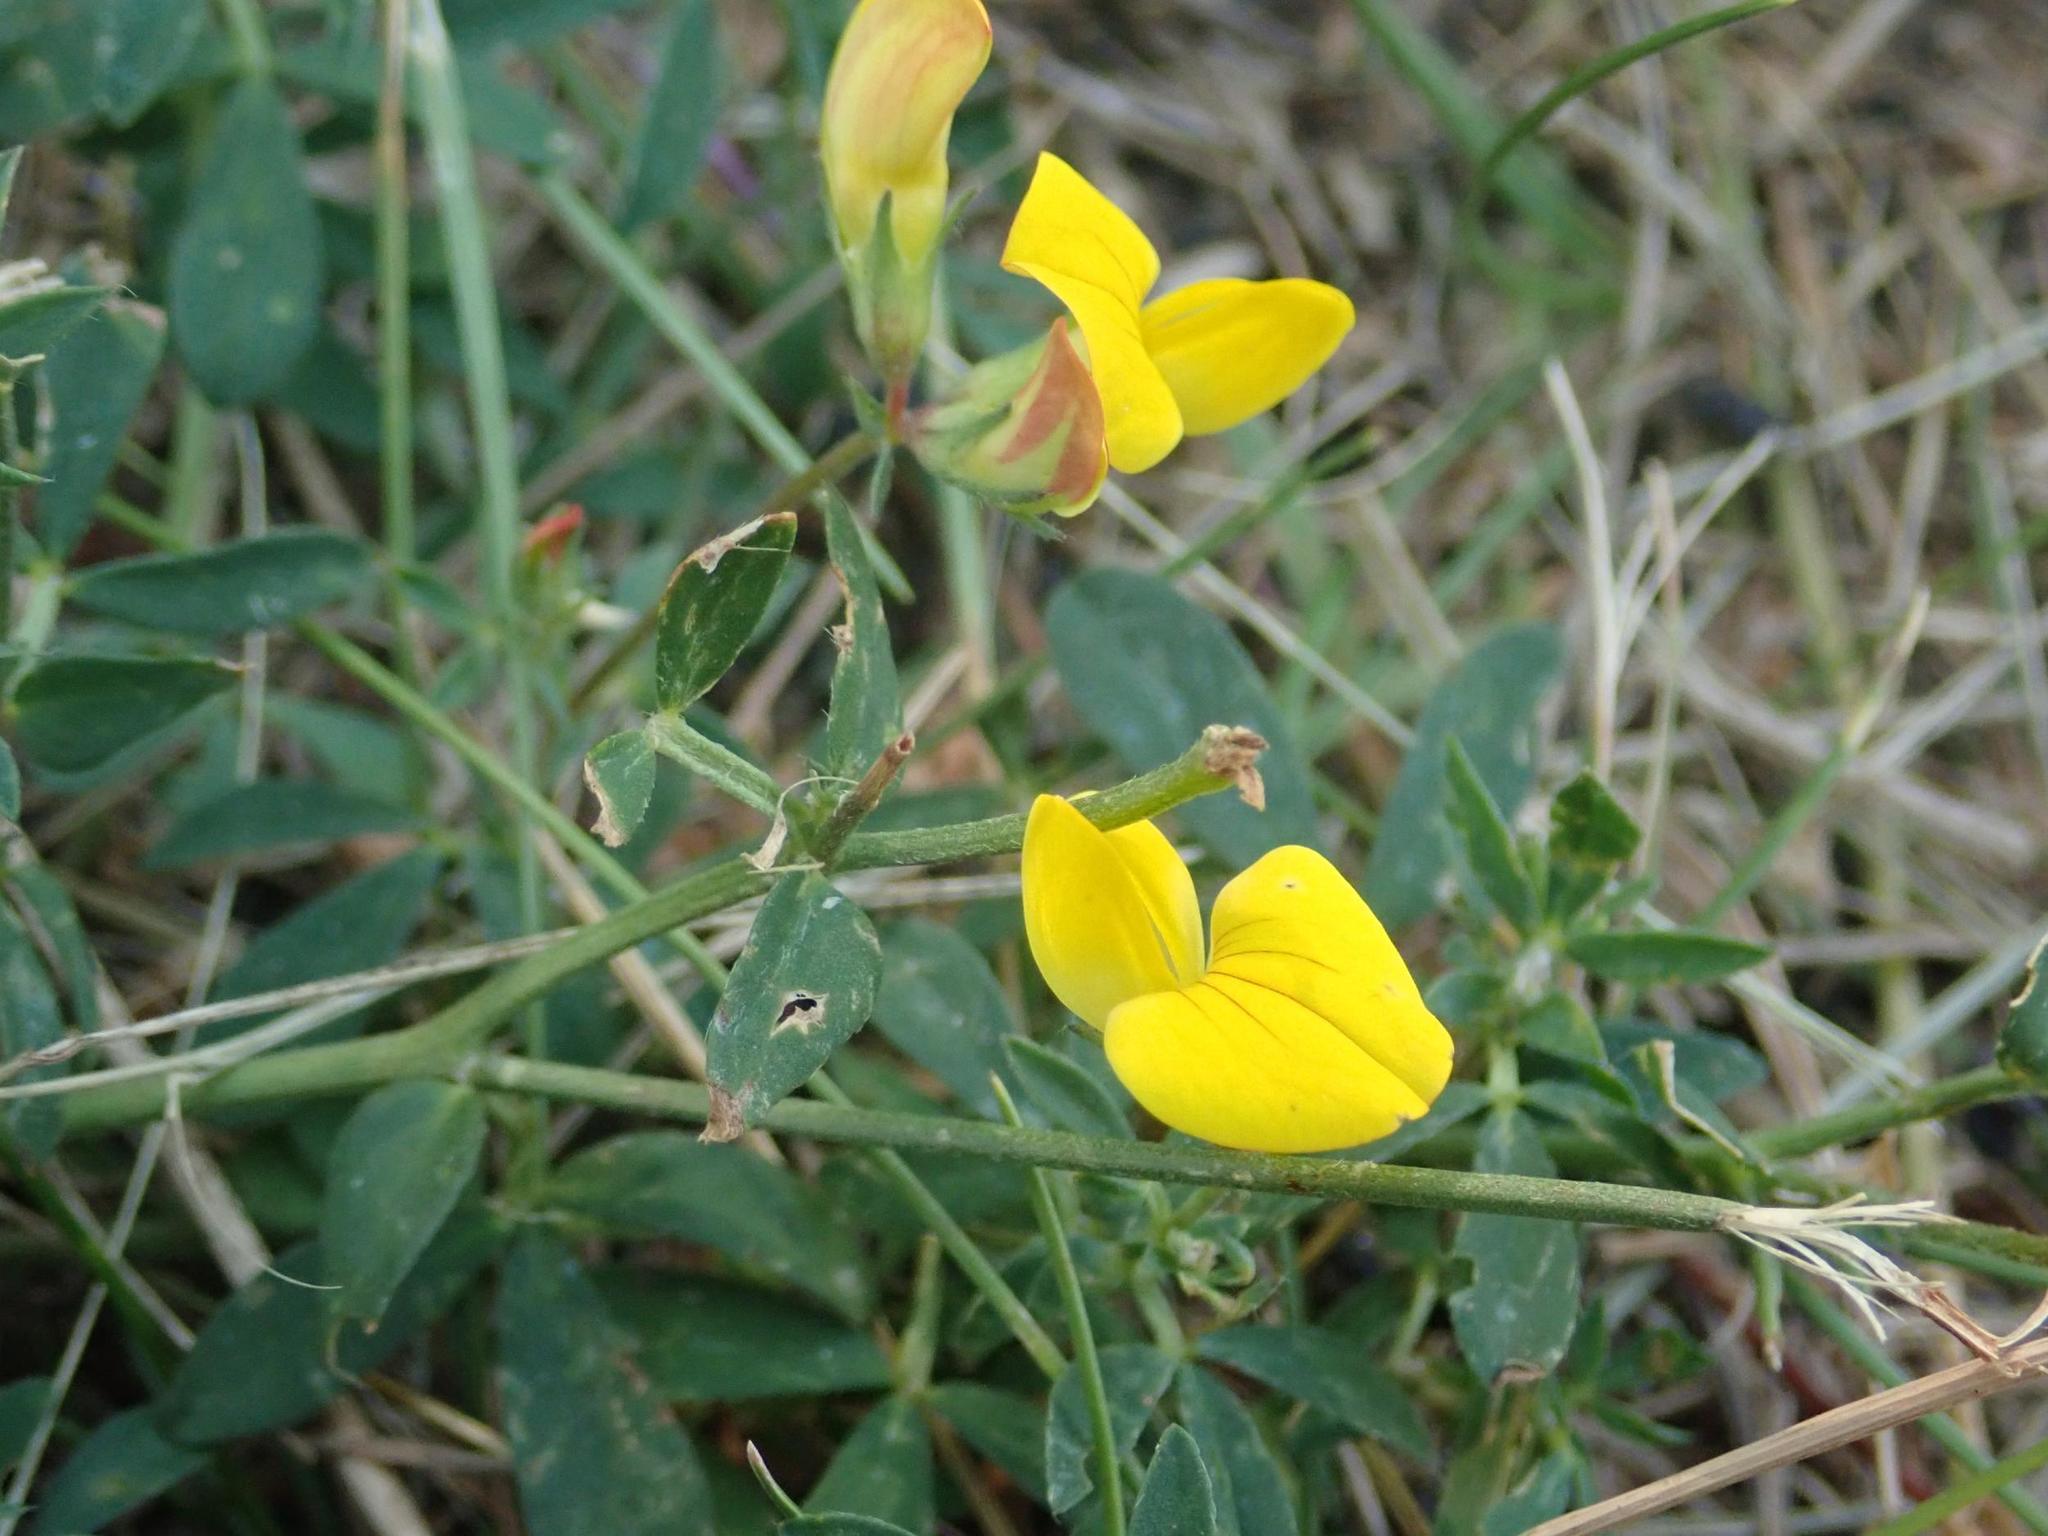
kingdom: Plantae
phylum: Tracheophyta
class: Magnoliopsida
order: Fabales
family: Fabaceae
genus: Lotus
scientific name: Lotus corniculatus
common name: Common bird's-foot-trefoil
